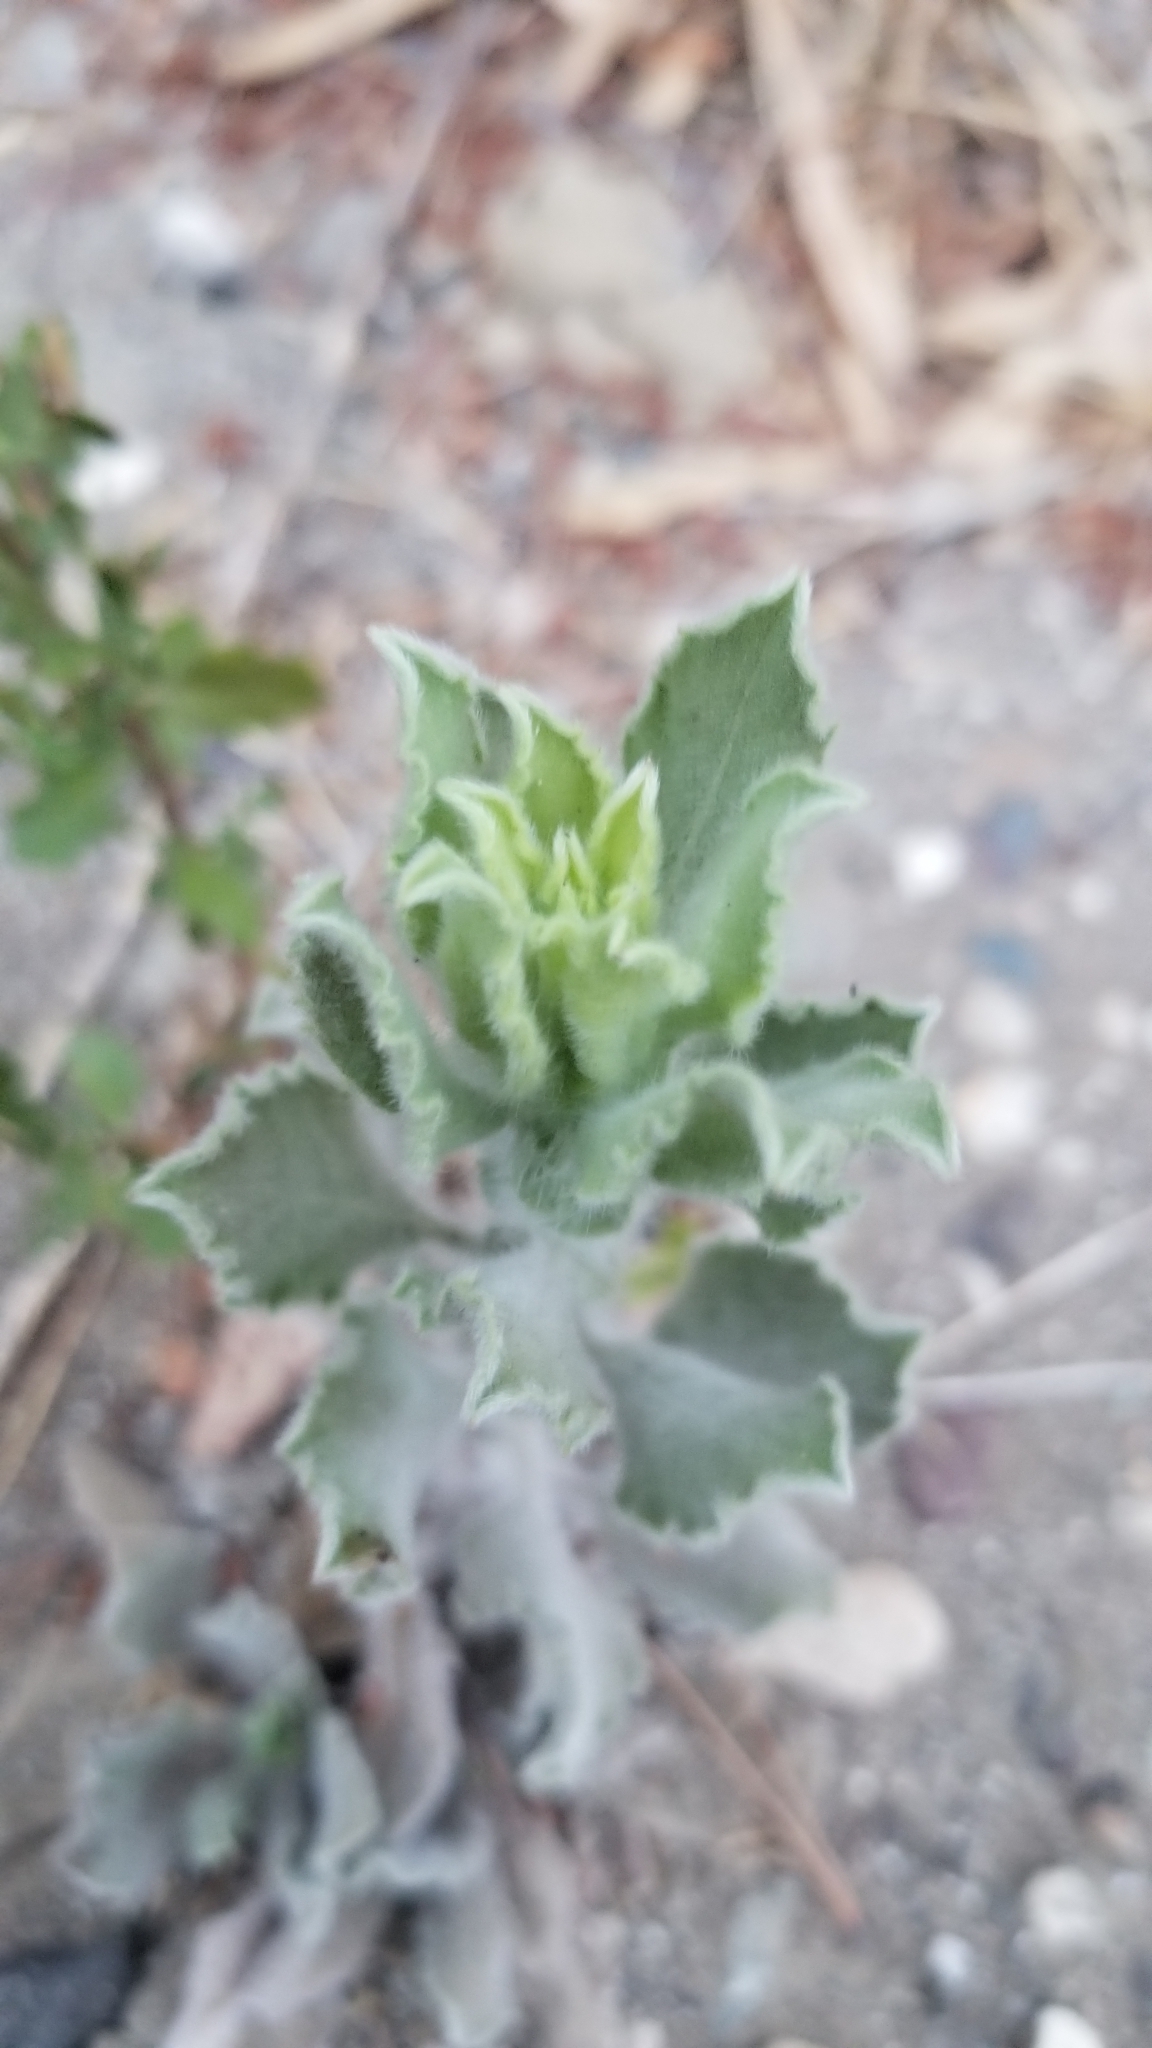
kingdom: Plantae
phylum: Tracheophyta
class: Magnoliopsida
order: Asterales
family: Asteraceae
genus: Heterotheca
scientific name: Heterotheca grandiflora
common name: Telegraphweed
